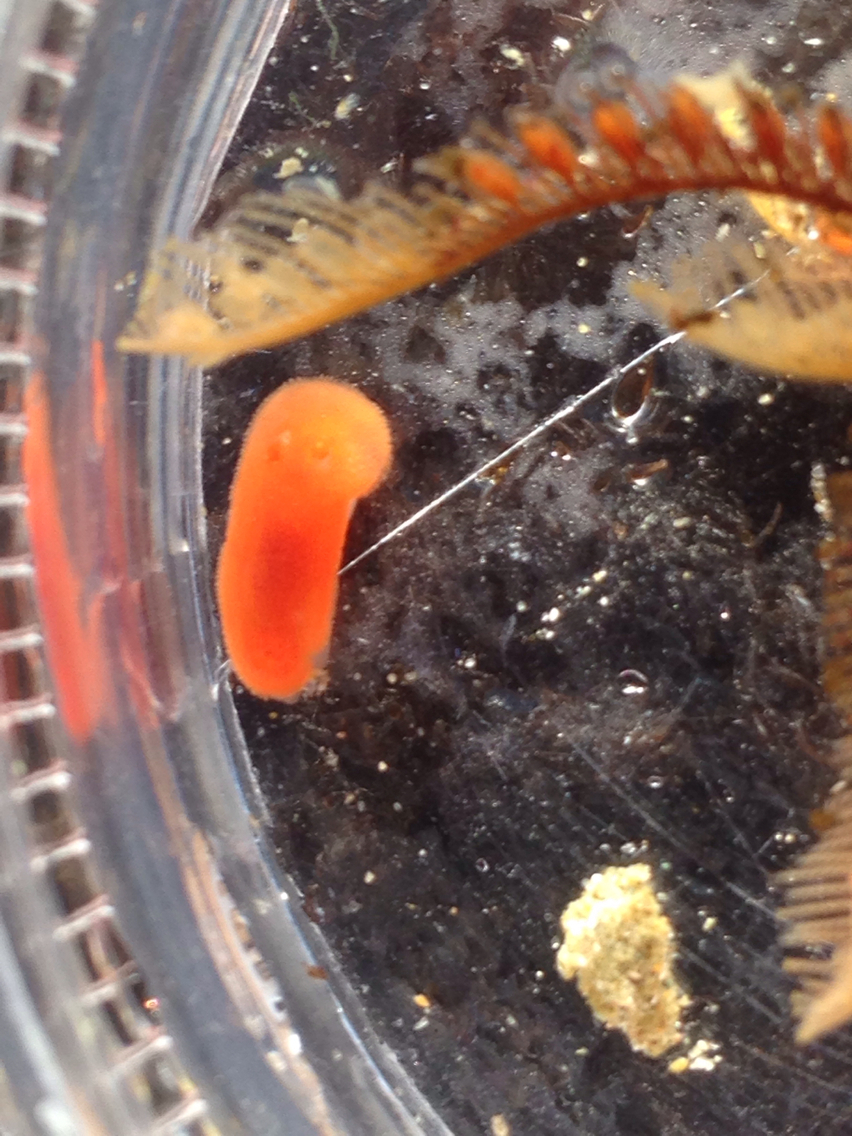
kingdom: Animalia
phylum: Mollusca
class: Gastropoda
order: Nudibranchia
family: Discodorididae
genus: Rostanga
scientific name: Rostanga pulchra
